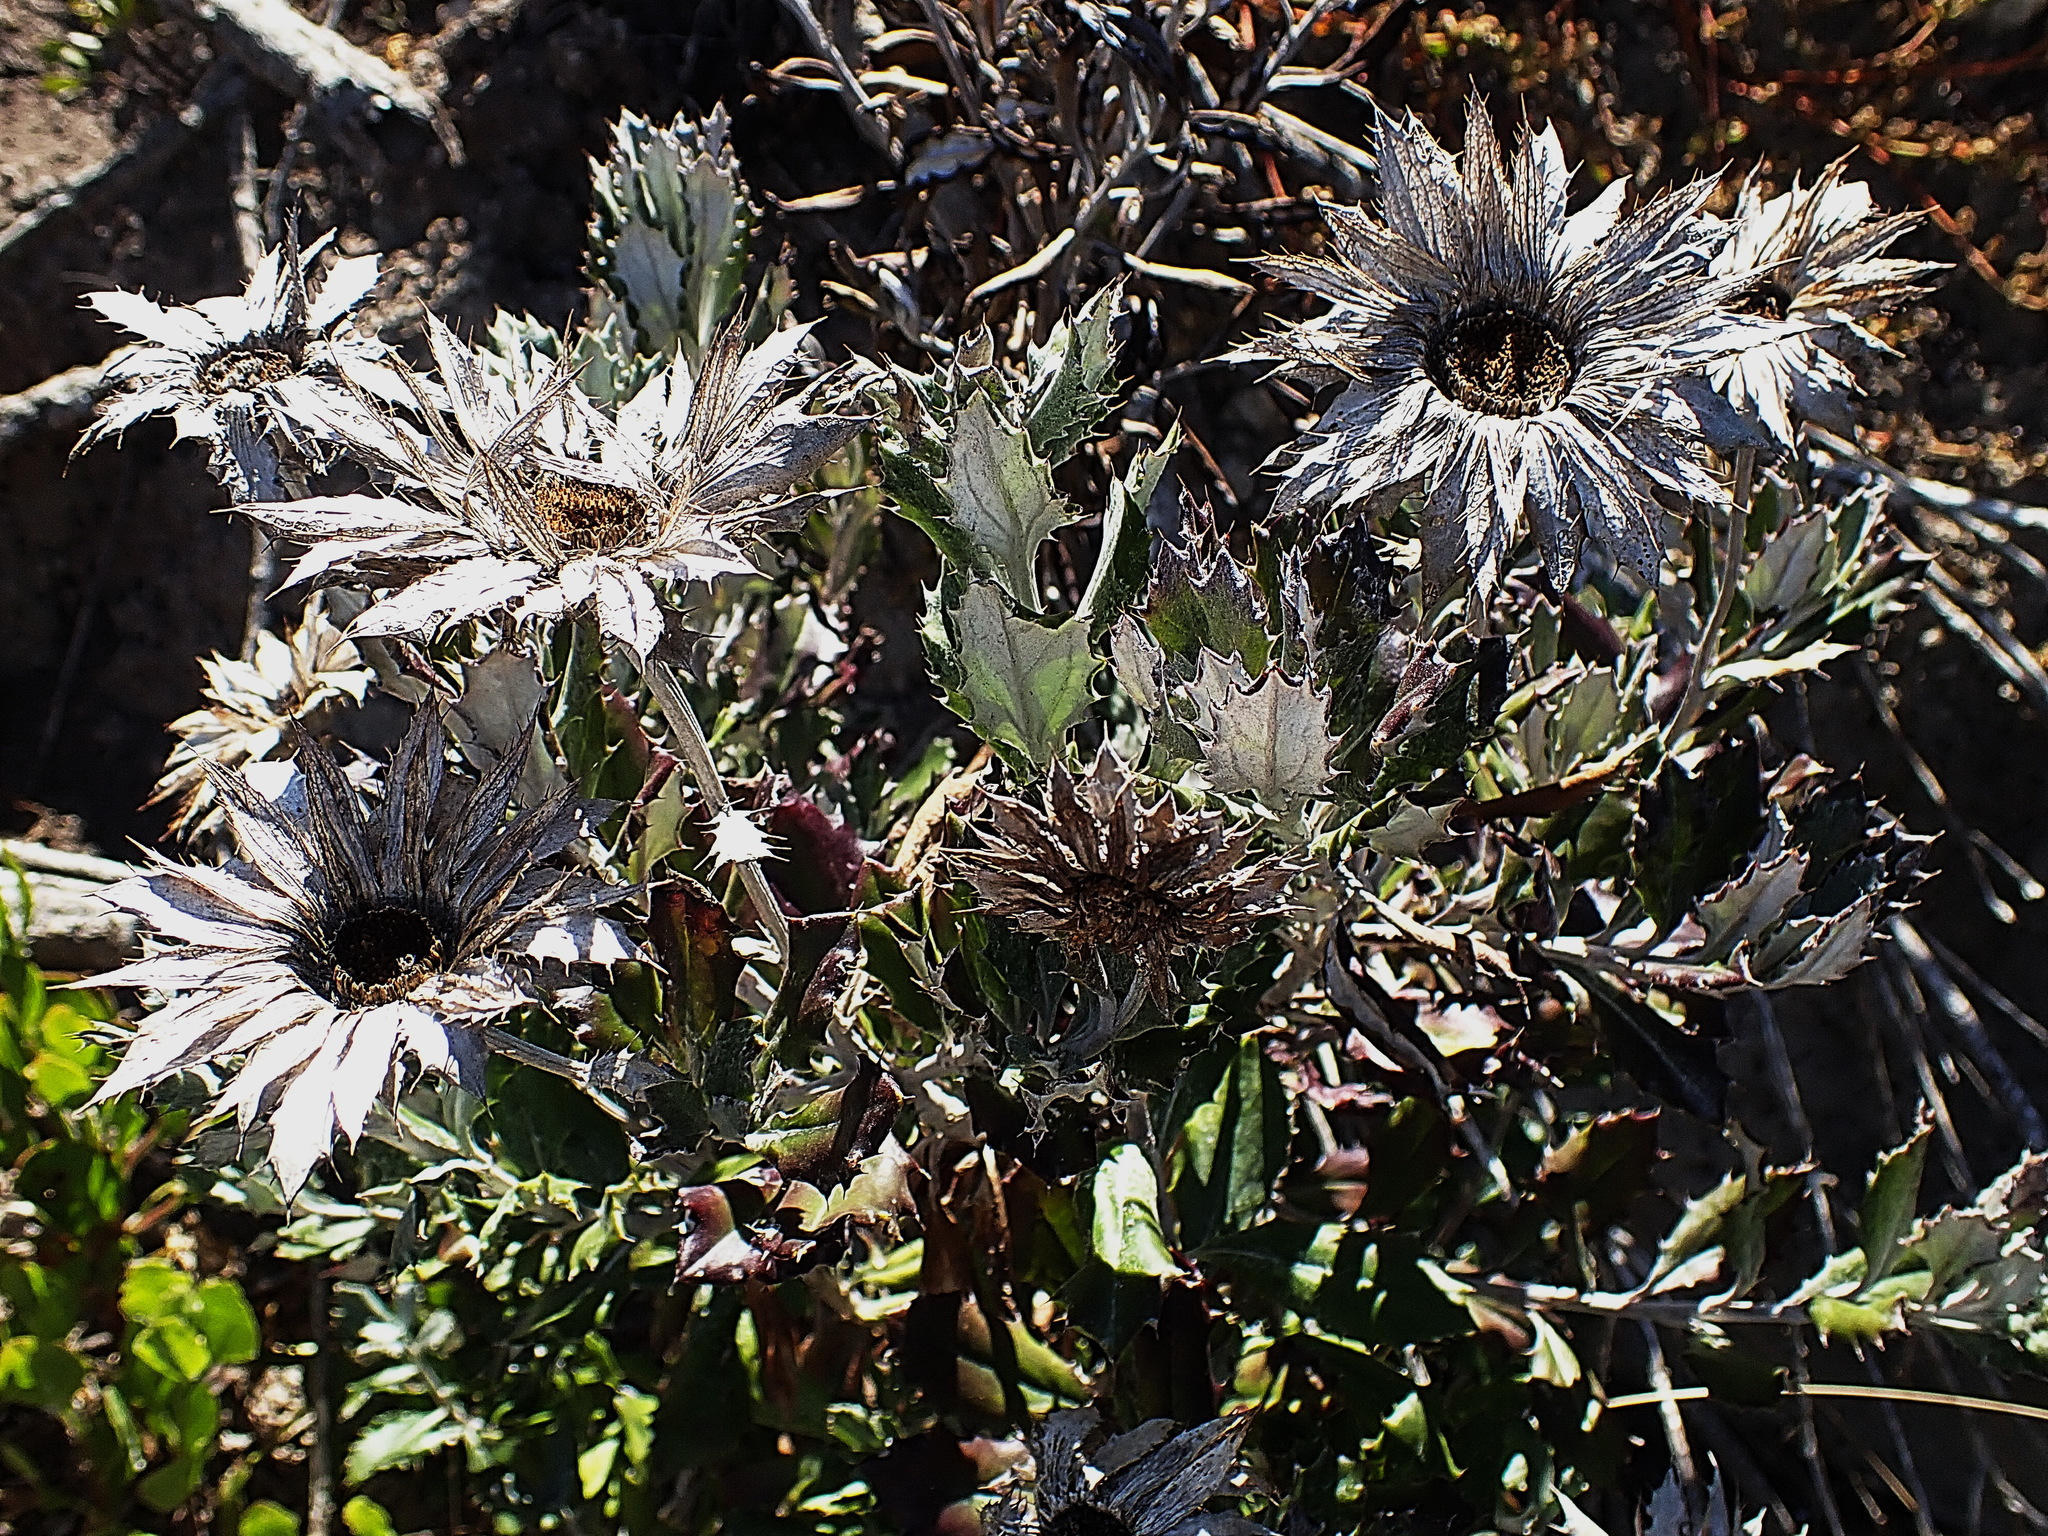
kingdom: Plantae
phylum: Tracheophyta
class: Magnoliopsida
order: Asterales
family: Asteraceae
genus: Berkheya
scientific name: Berkheya coriacea
